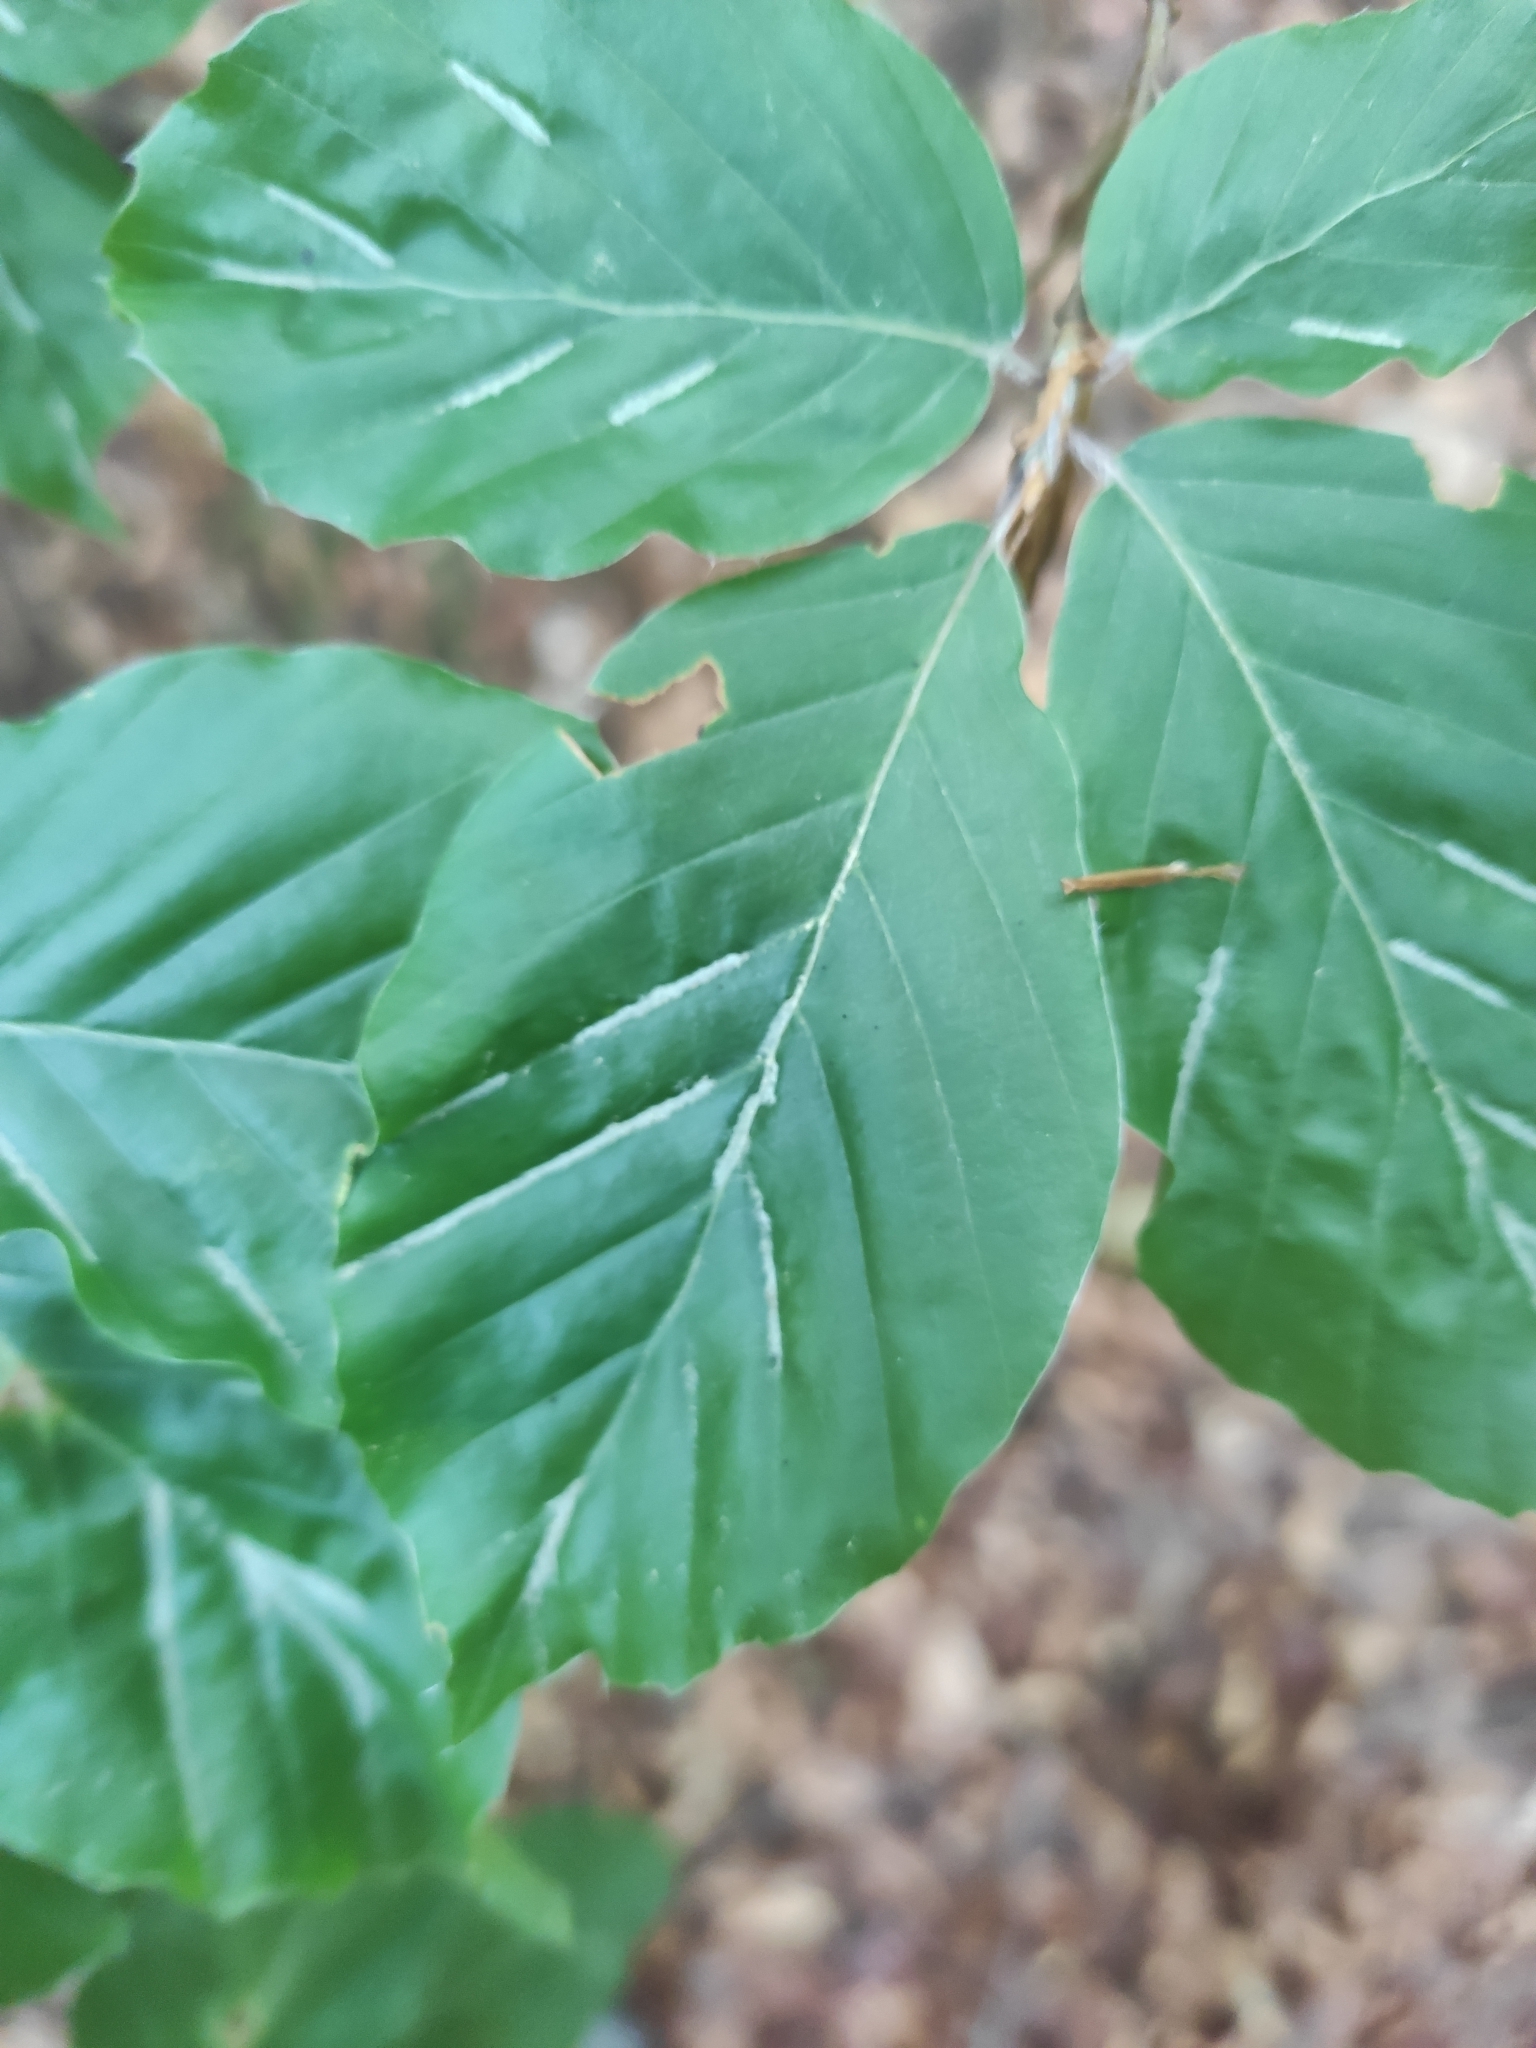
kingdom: Plantae
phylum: Tracheophyta
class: Magnoliopsida
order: Fagales
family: Fagaceae
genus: Fagus
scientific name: Fagus sylvatica
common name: Beech
